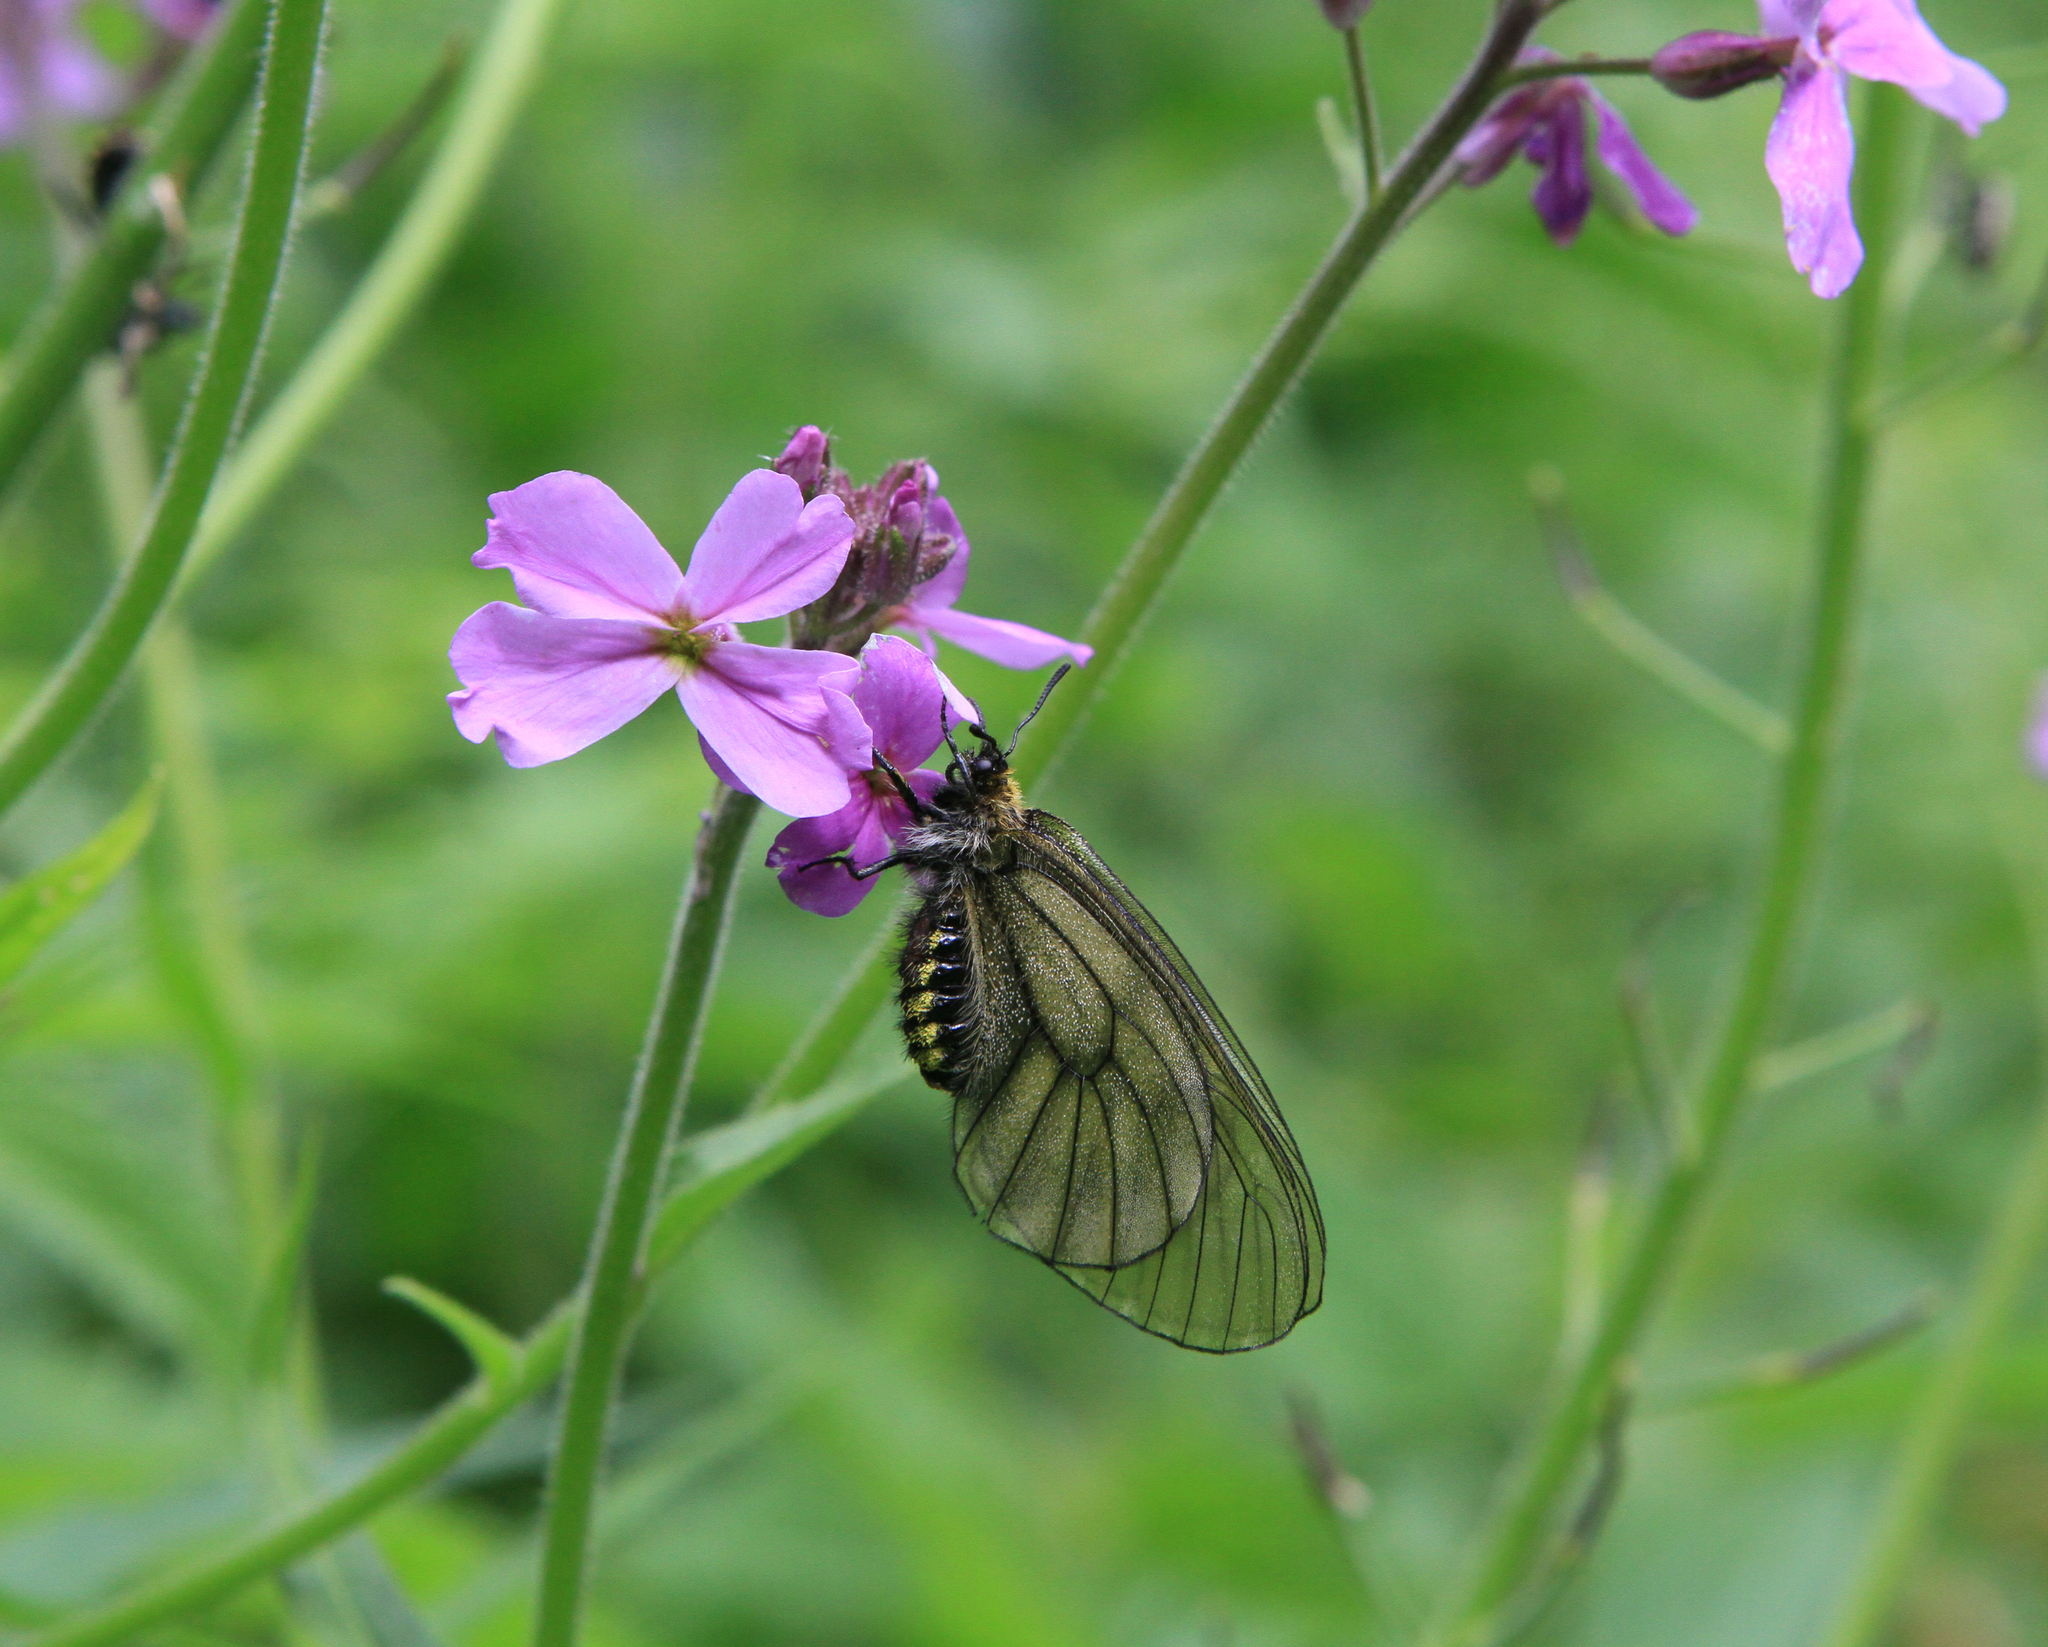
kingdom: Animalia
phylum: Arthropoda
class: Insecta
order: Lepidoptera
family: Papilionidae
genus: Parnassius
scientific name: Parnassius stubbendorfii
